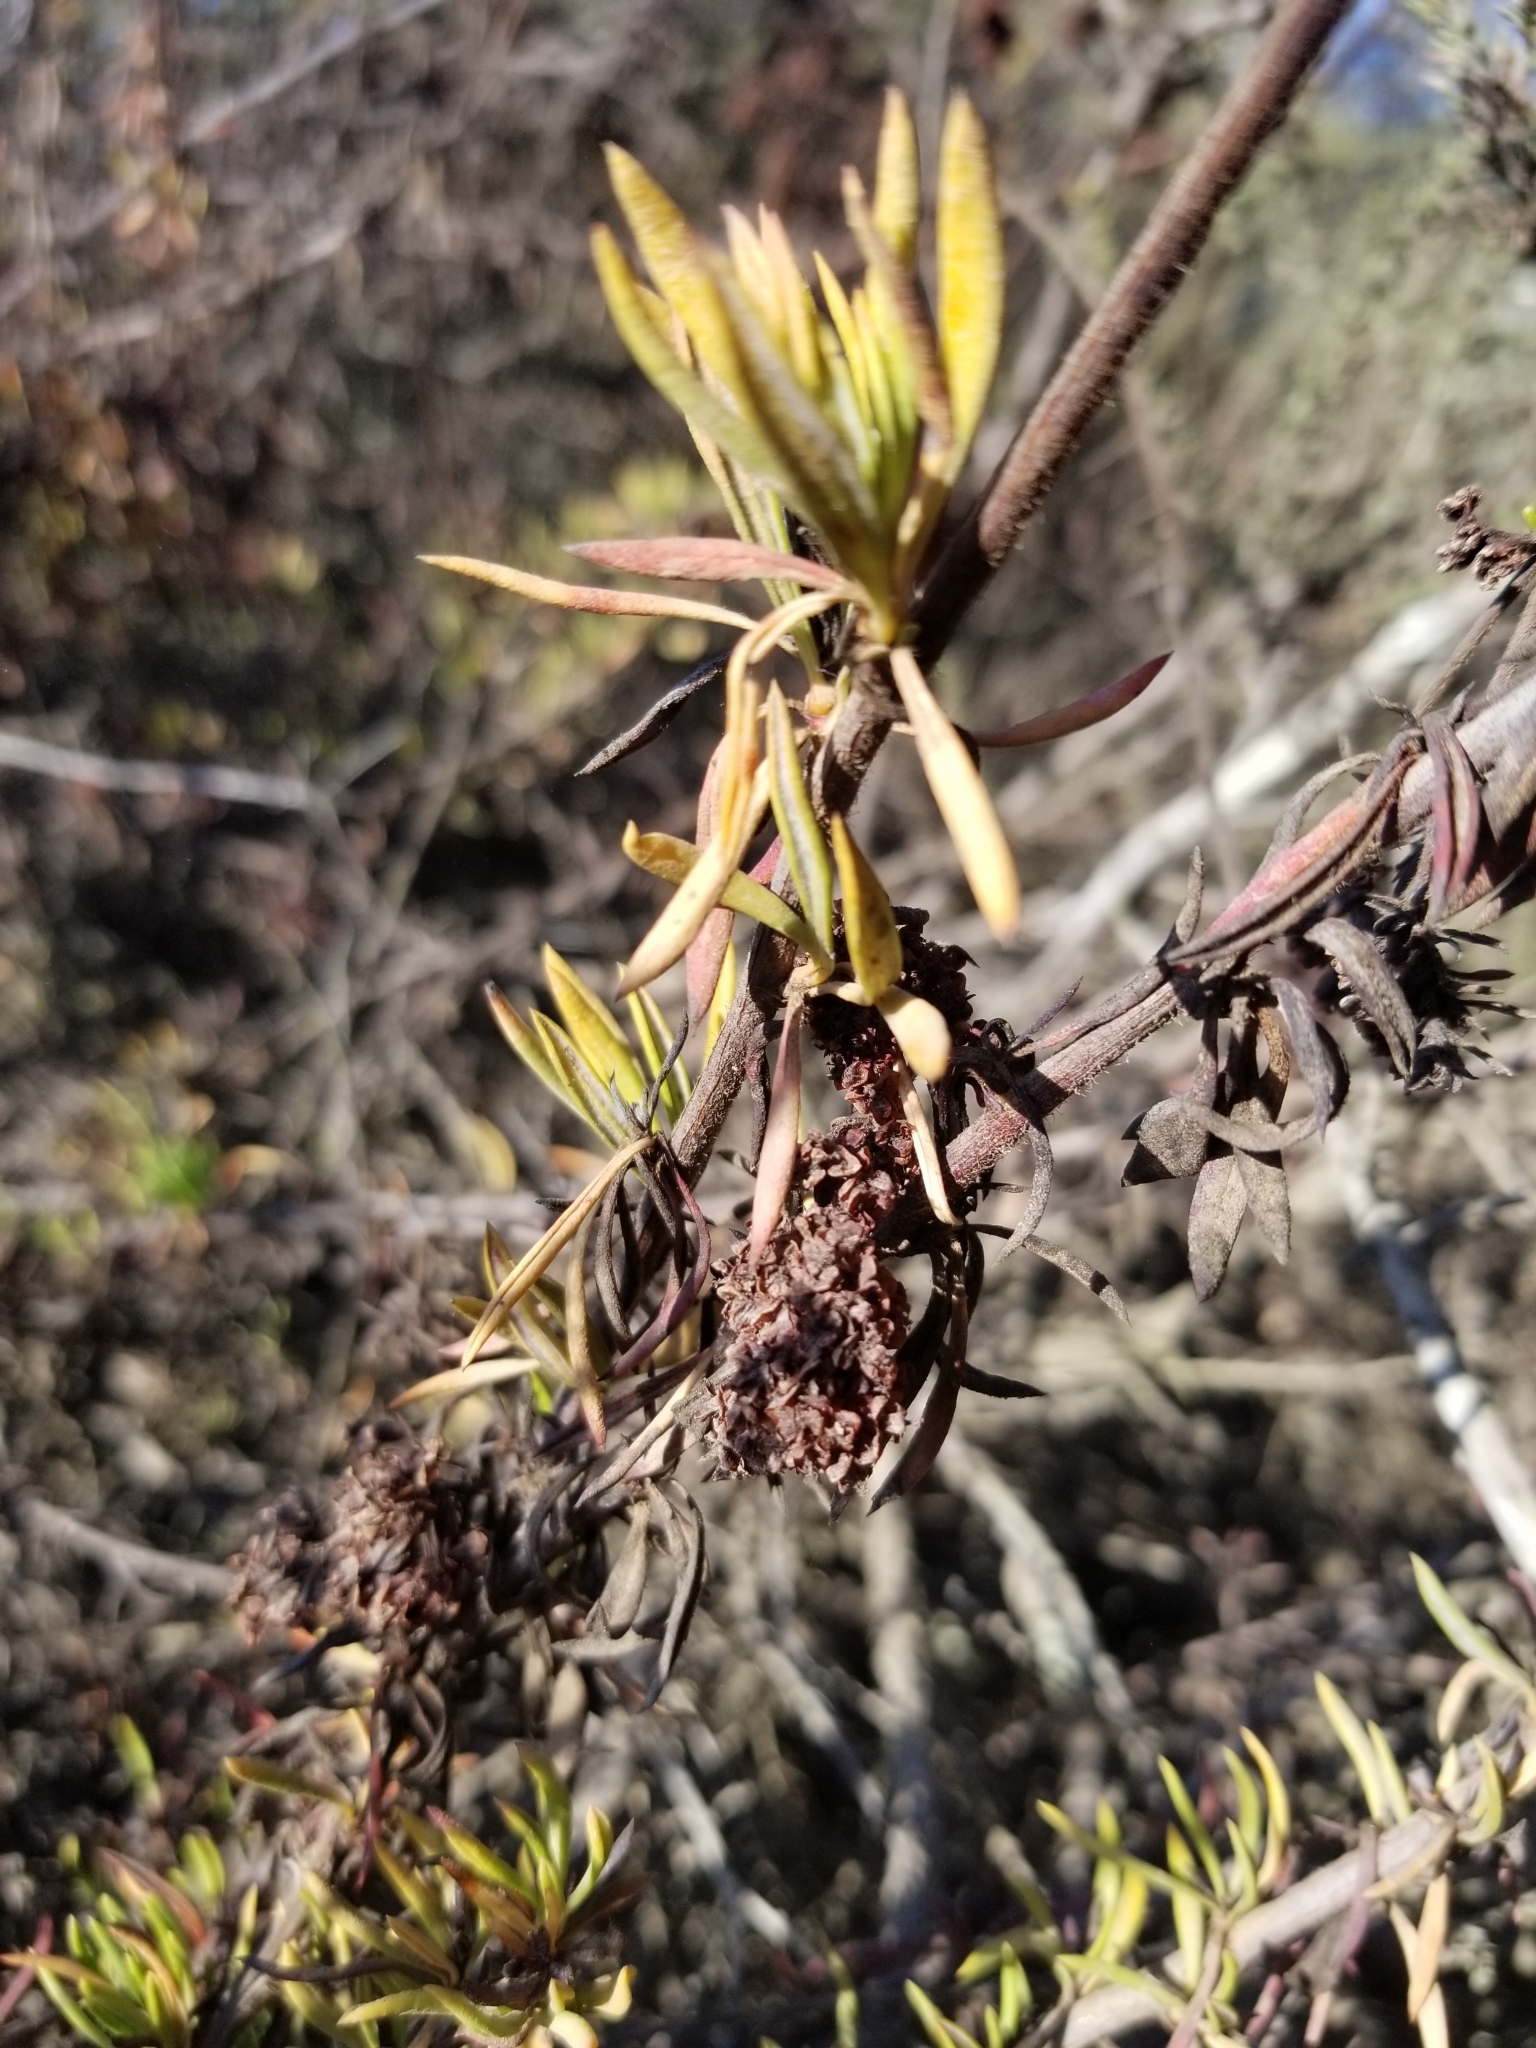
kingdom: Plantae
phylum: Tracheophyta
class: Magnoliopsida
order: Caryophyllales
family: Polygonaceae
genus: Eriogonum
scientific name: Eriogonum fasciculatum
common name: California wild buckwheat
